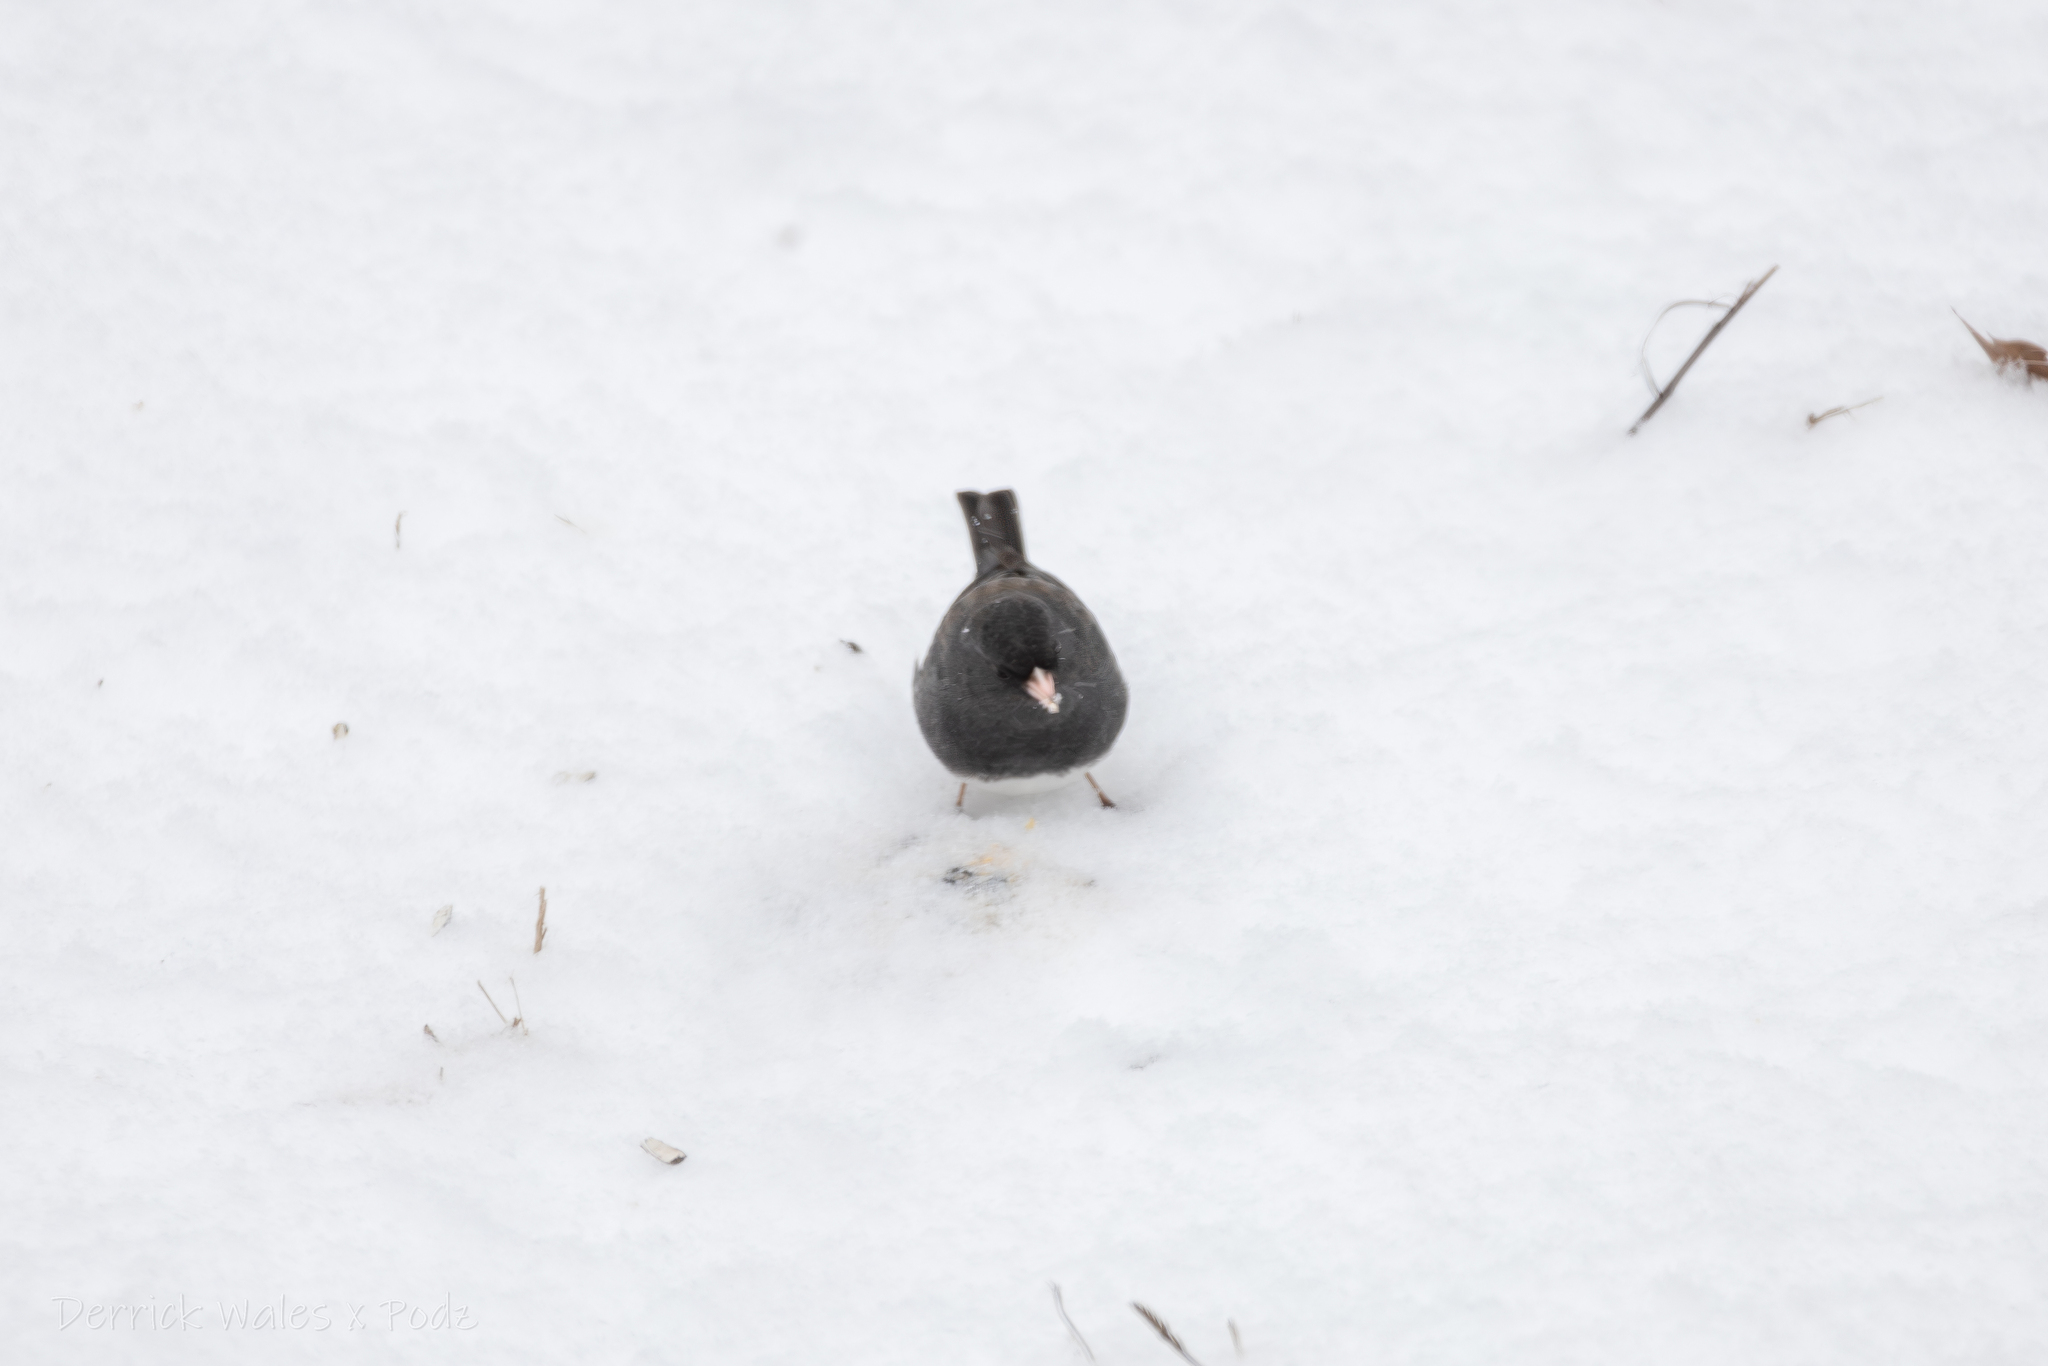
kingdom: Animalia
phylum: Chordata
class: Aves
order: Passeriformes
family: Passerellidae
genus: Junco
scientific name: Junco hyemalis
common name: Dark-eyed junco
